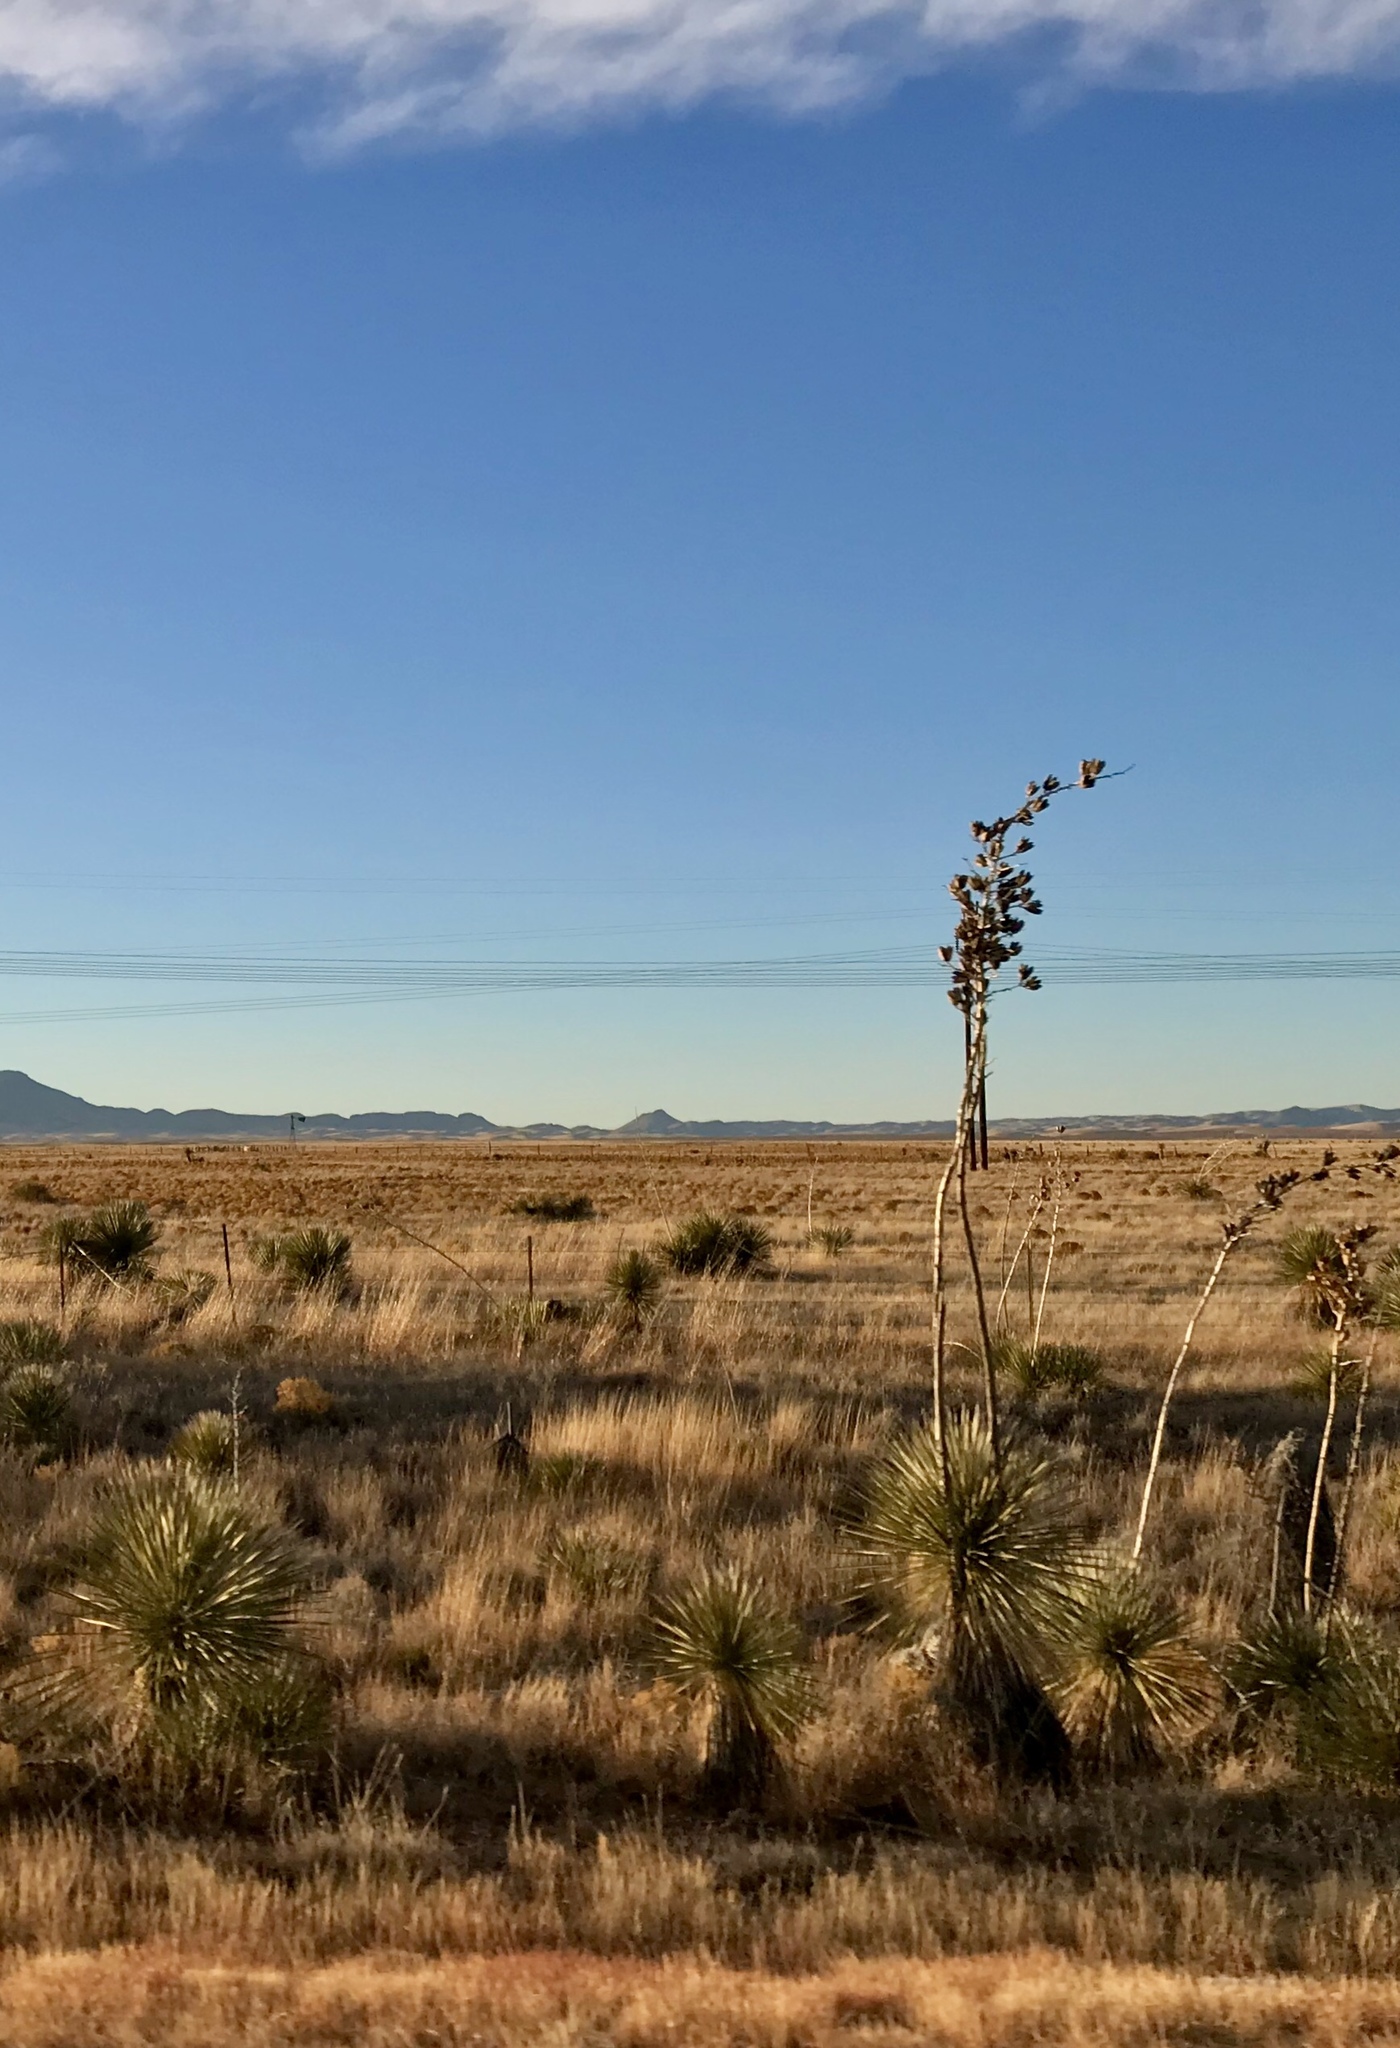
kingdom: Plantae
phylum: Tracheophyta
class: Liliopsida
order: Asparagales
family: Asparagaceae
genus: Yucca
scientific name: Yucca elata
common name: Palmella
